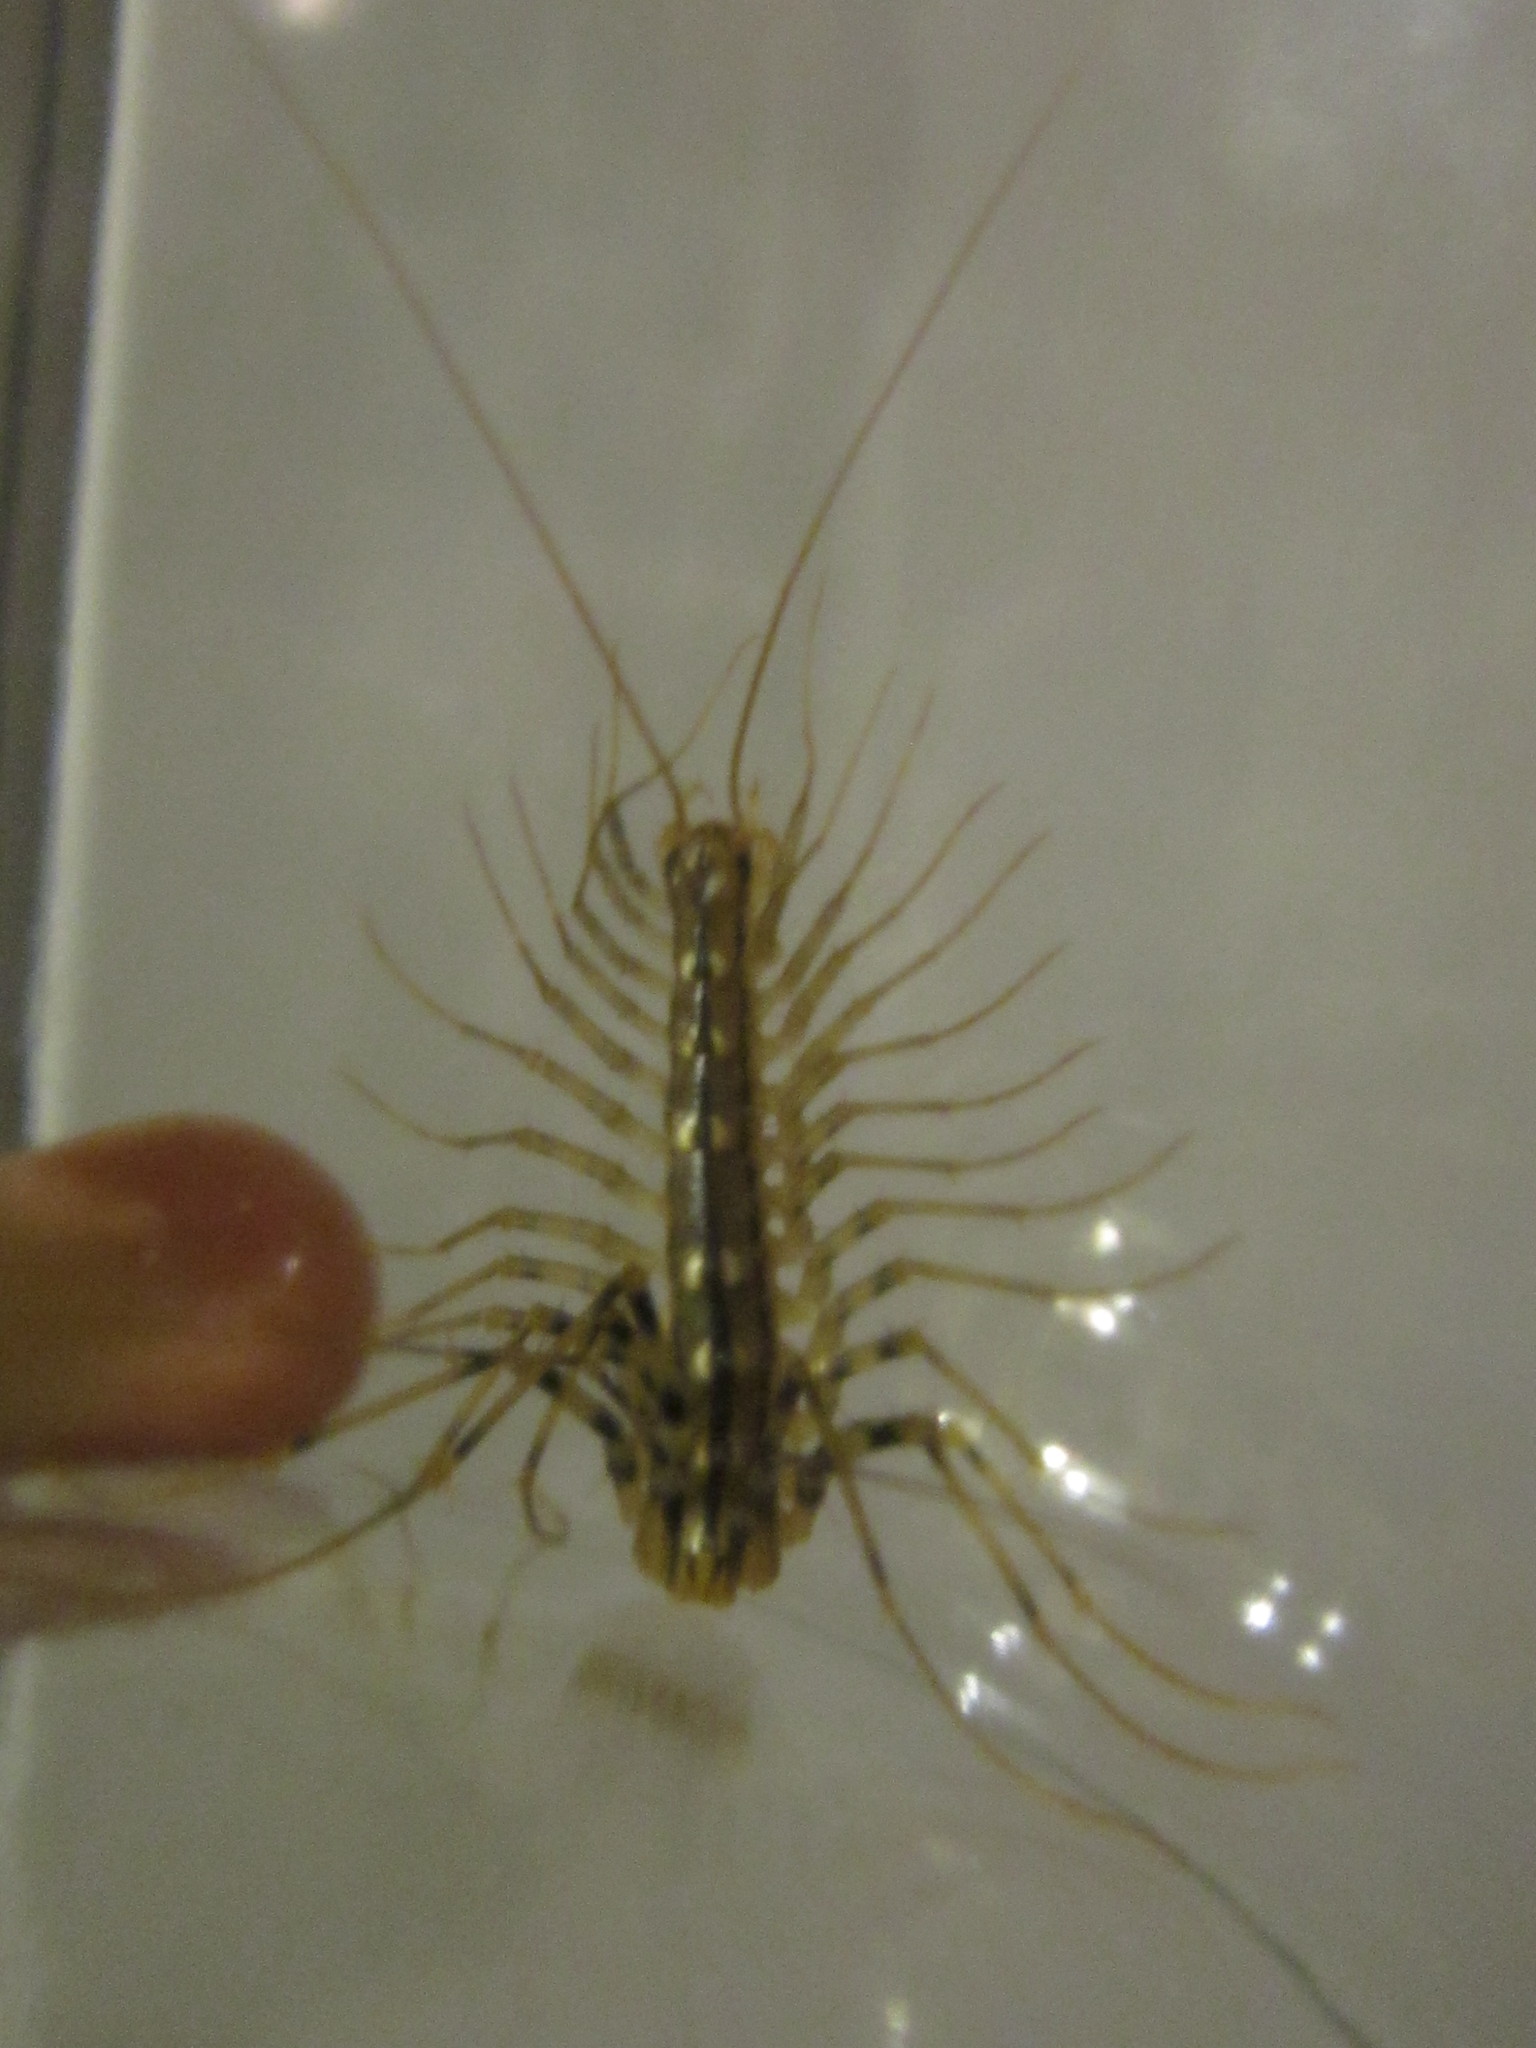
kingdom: Animalia
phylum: Arthropoda
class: Chilopoda
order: Scutigeromorpha
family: Scutigeridae
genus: Scutigera
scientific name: Scutigera coleoptrata
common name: House centipede
